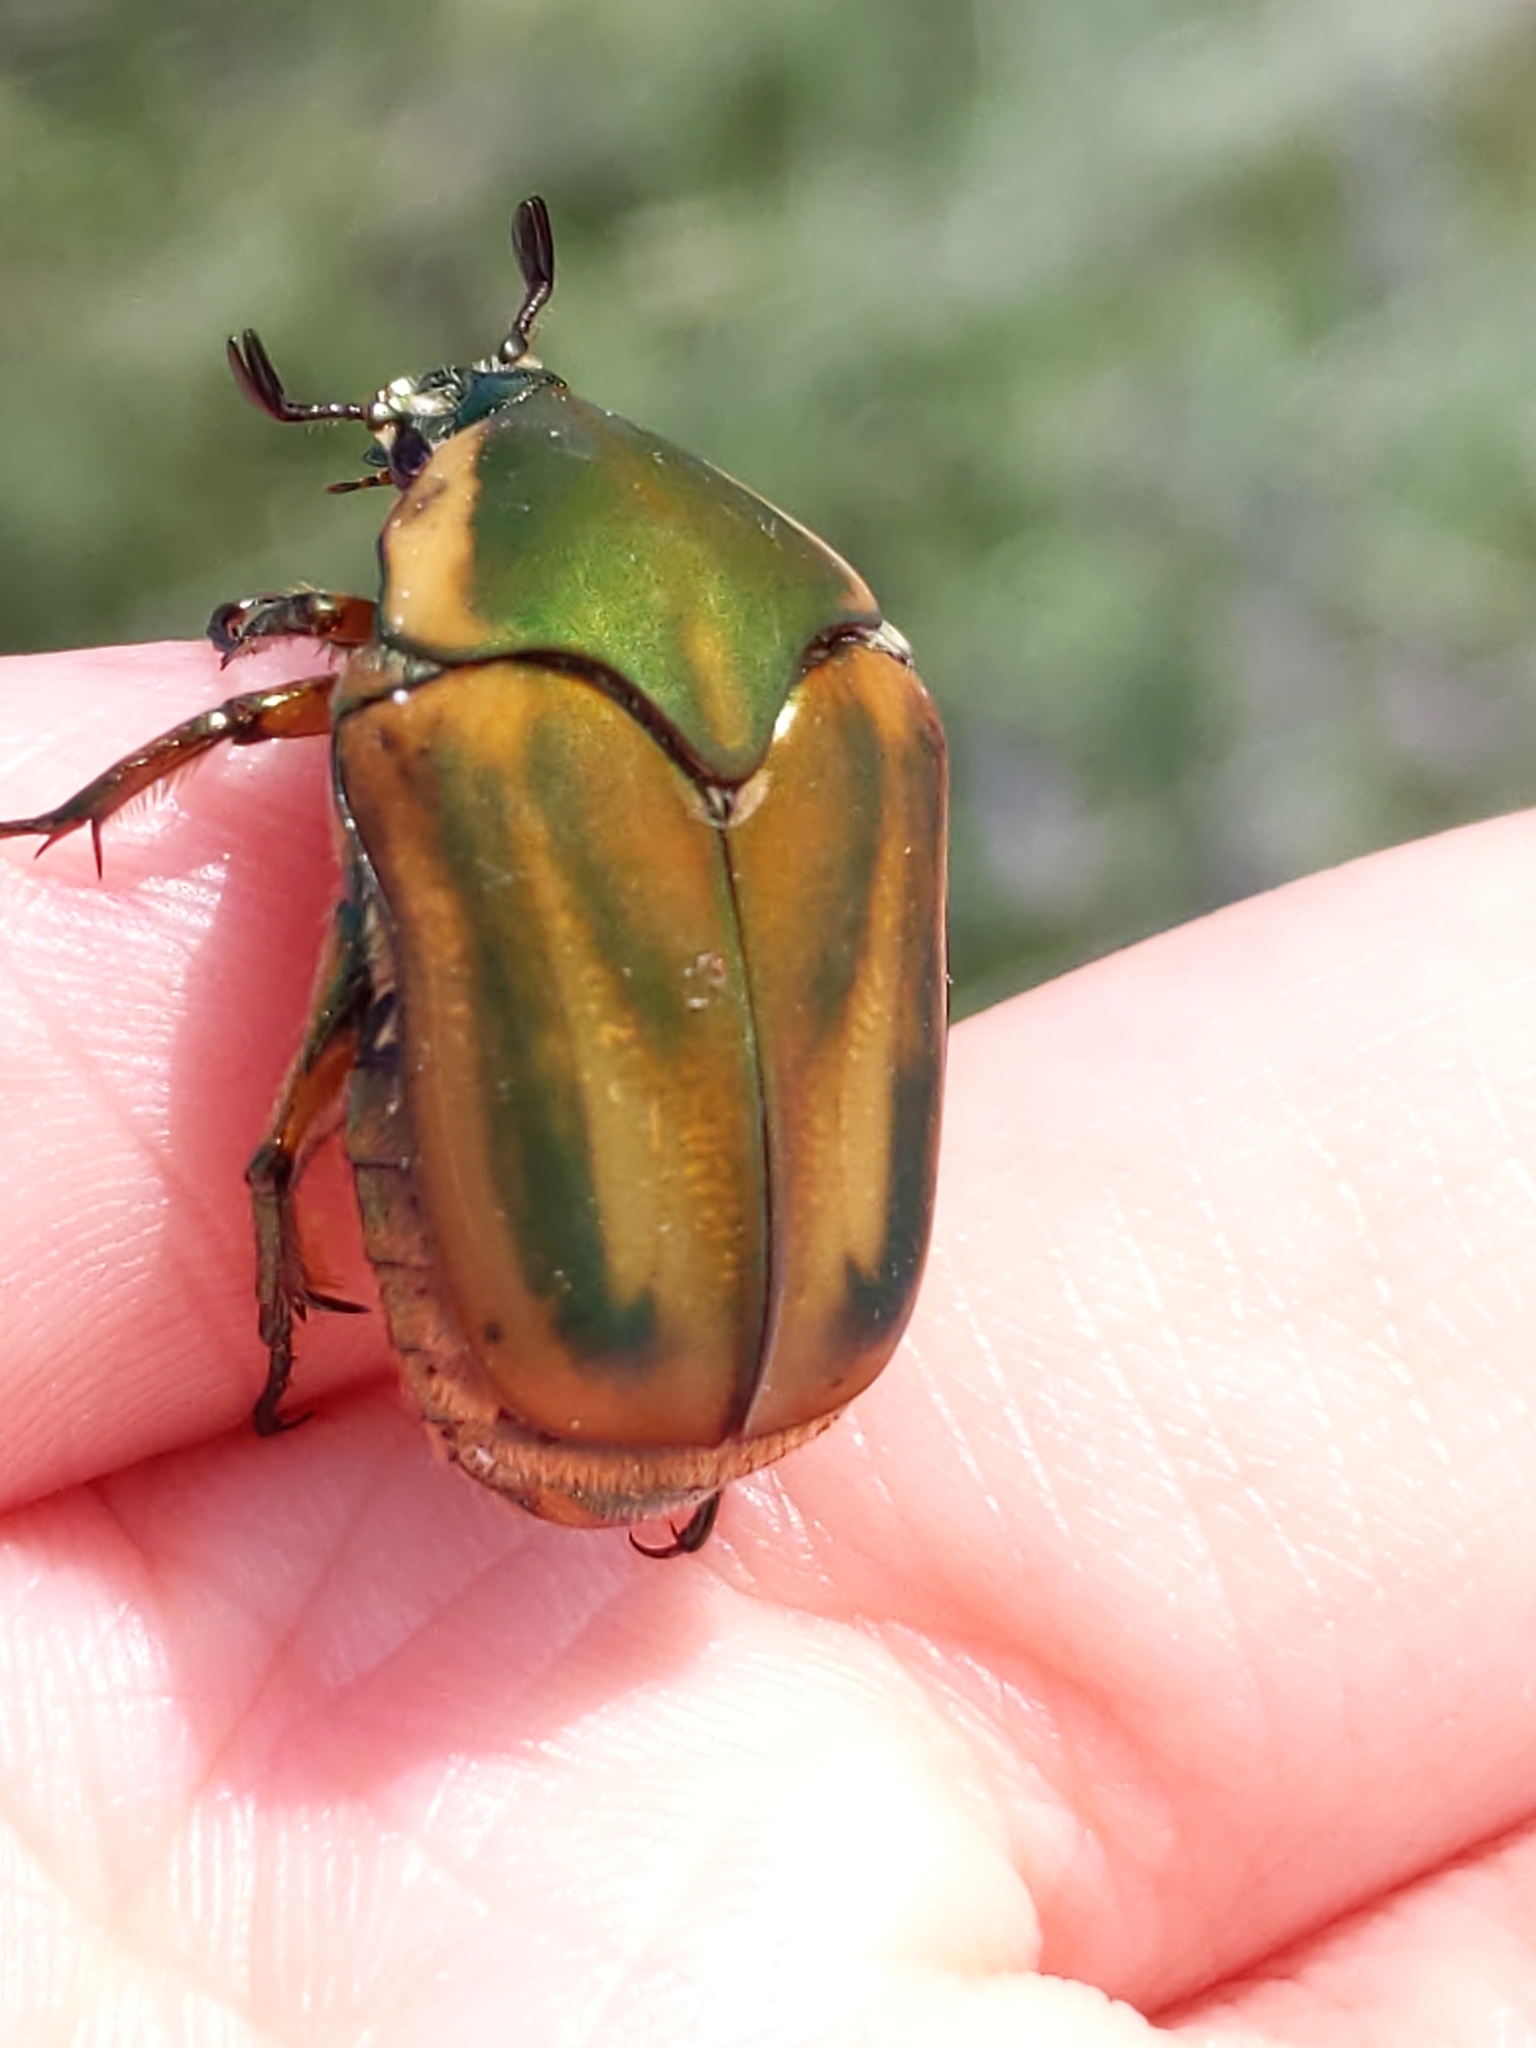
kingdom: Animalia
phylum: Arthropoda
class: Insecta
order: Coleoptera
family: Scarabaeidae
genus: Cotinis
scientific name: Cotinis nitida
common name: Common green june beetle
